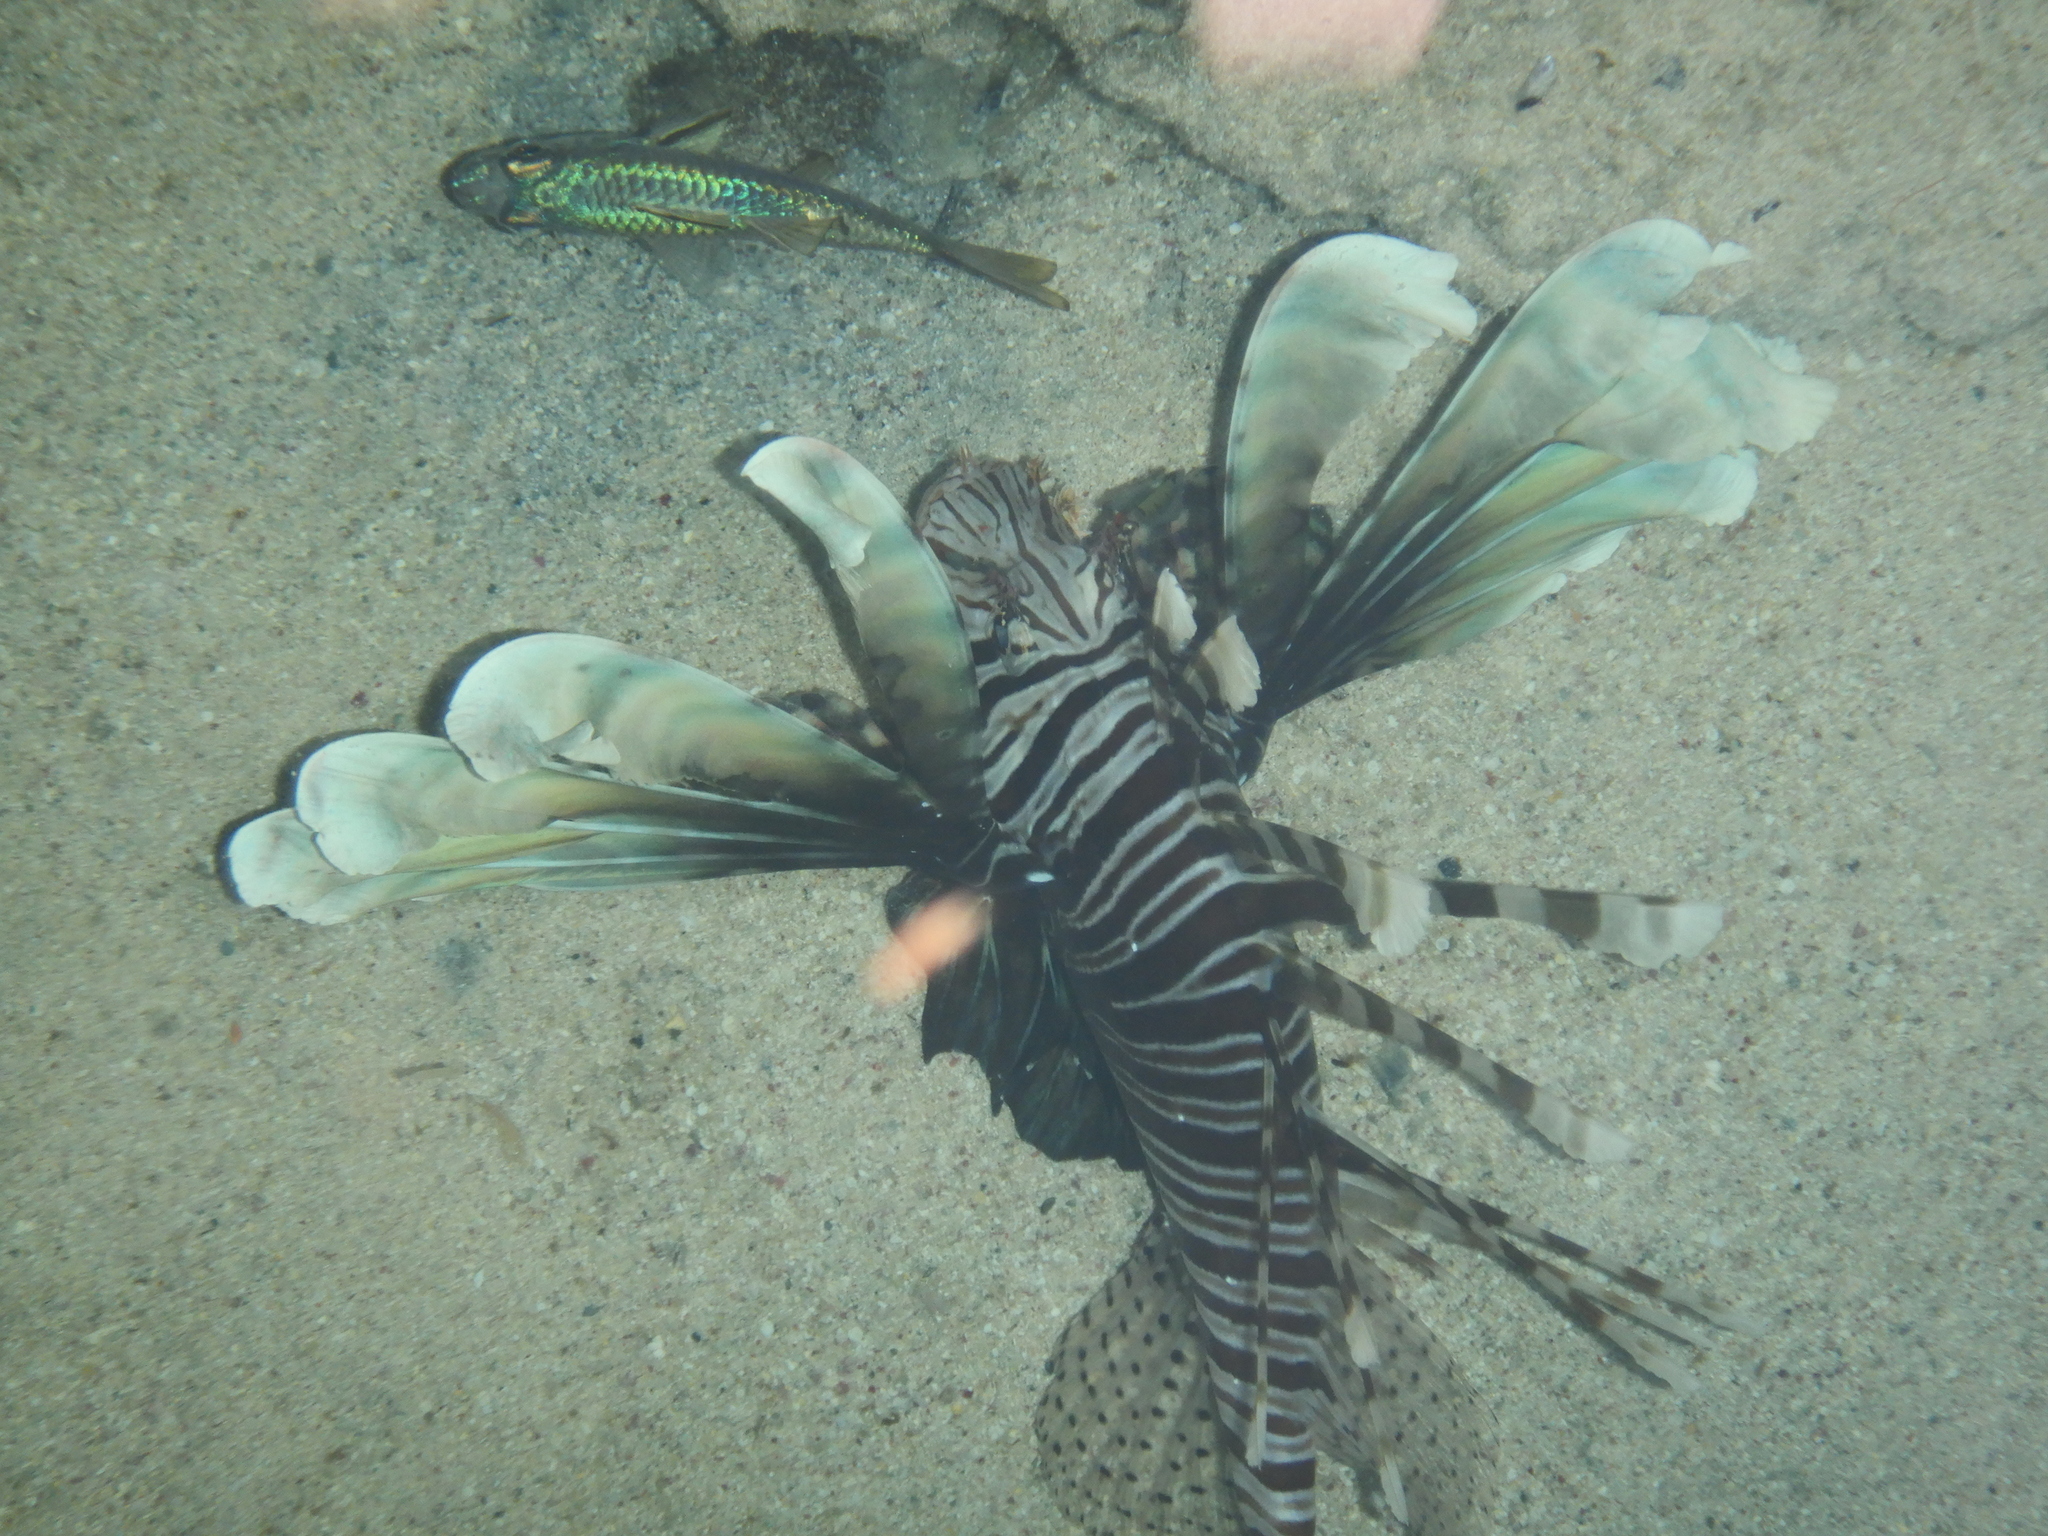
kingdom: Animalia
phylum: Chordata
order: Scorpaeniformes
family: Scorpaenidae
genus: Pterois
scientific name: Pterois miles
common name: Devil firefish
